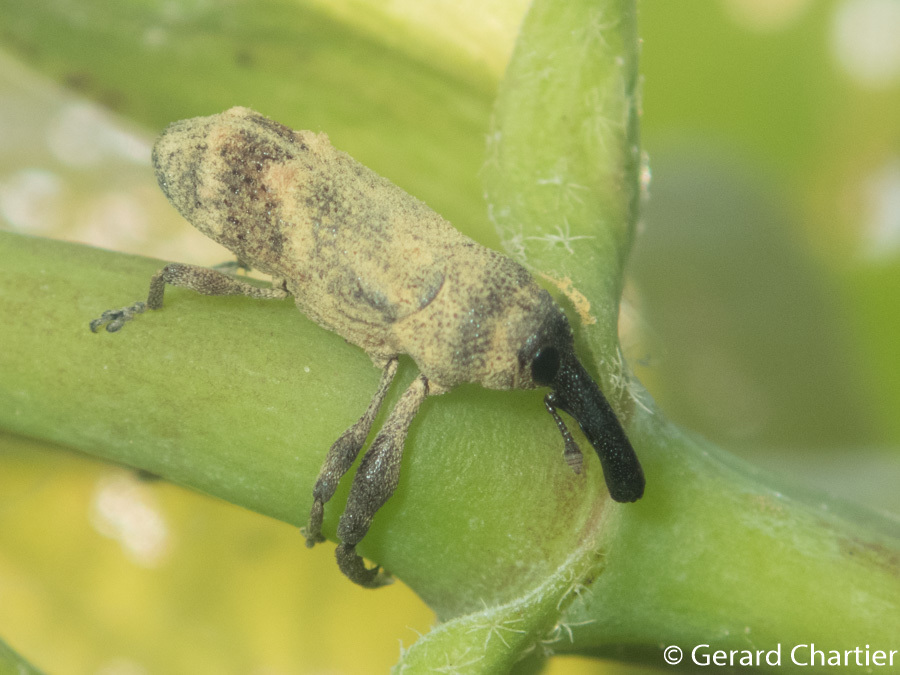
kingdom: Animalia
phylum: Arthropoda
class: Insecta
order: Coleoptera
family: Curculionidae
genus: Merus
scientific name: Merus
